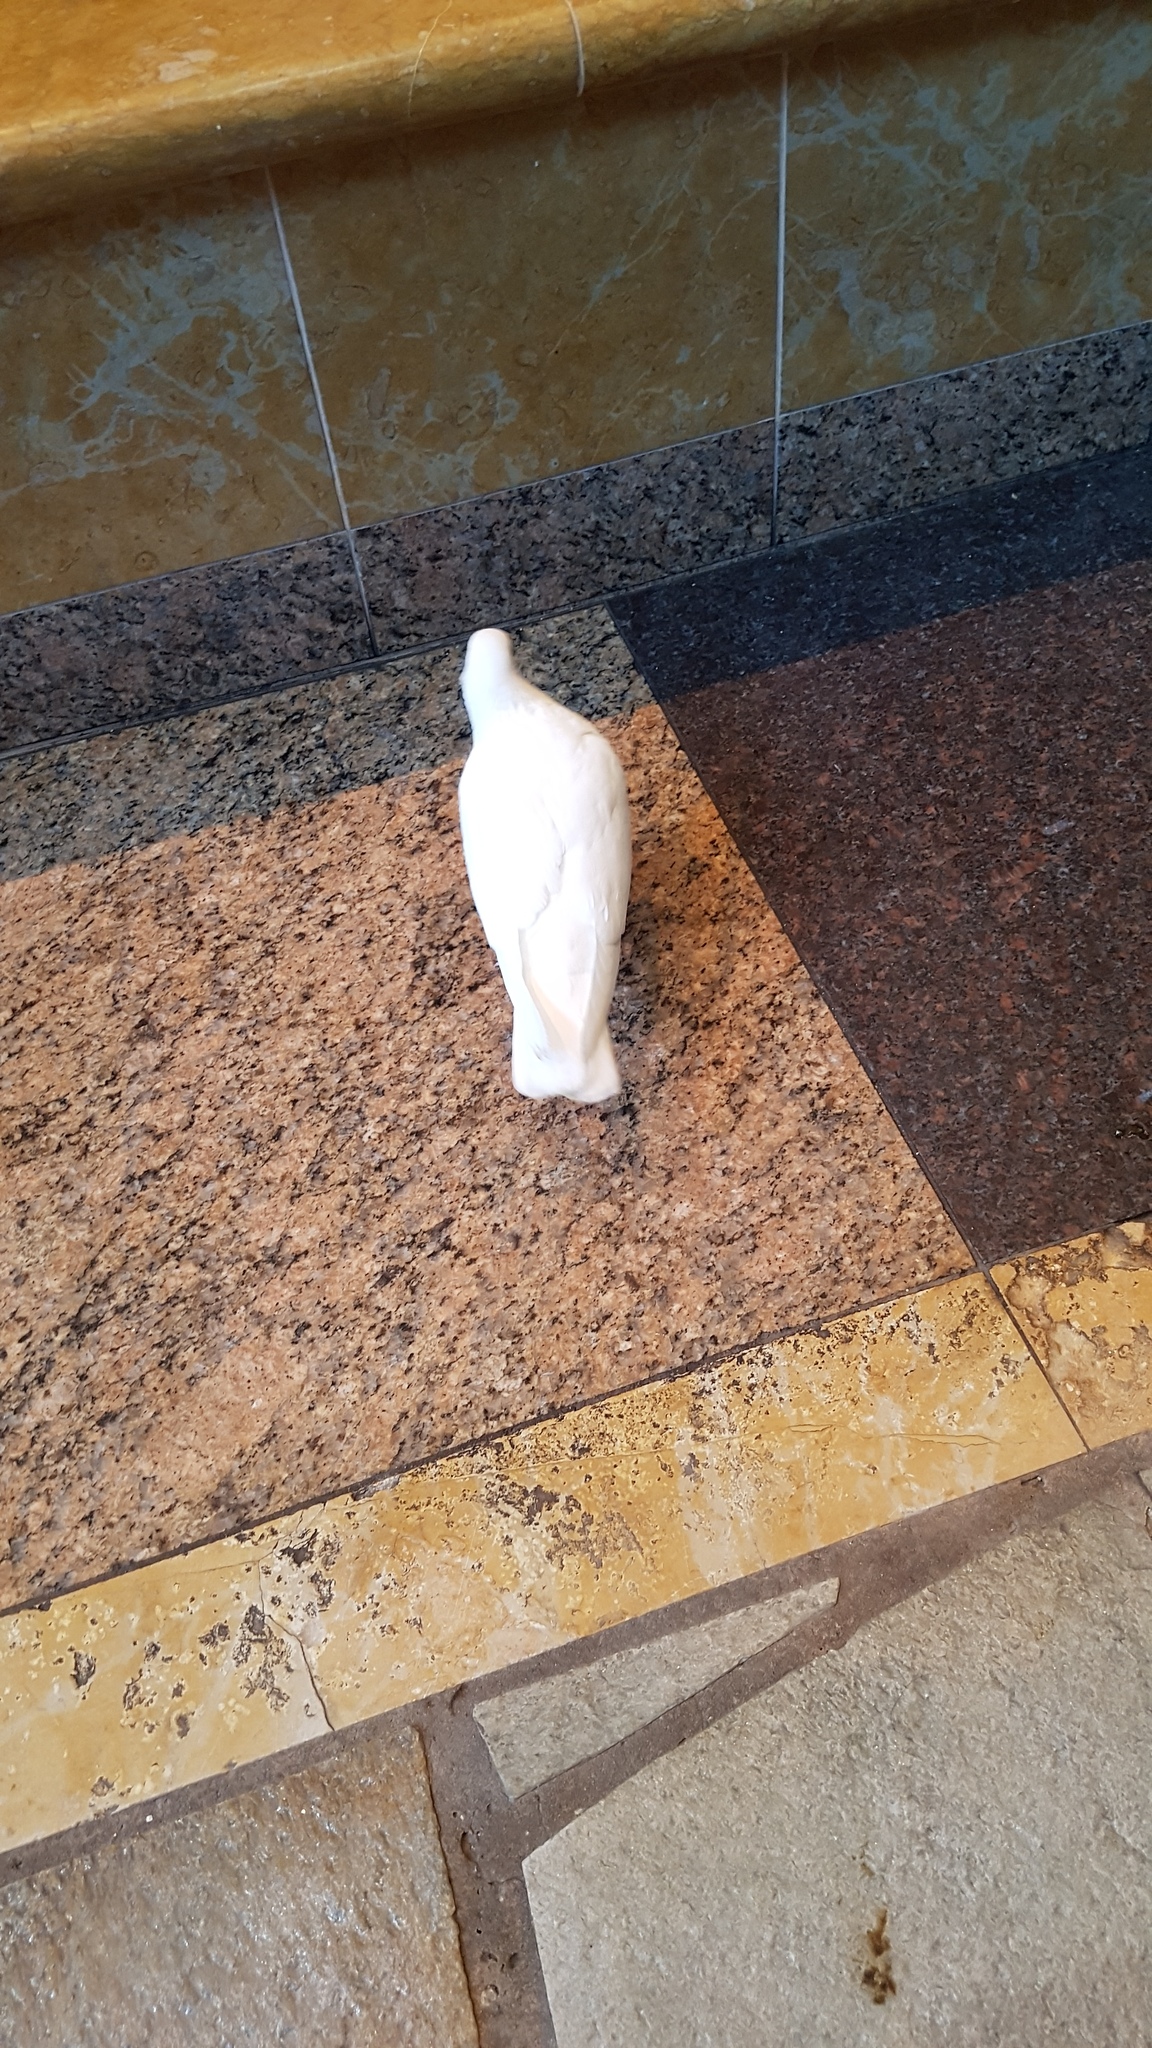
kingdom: Animalia
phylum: Chordata
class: Aves
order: Columbiformes
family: Columbidae
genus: Columba
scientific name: Columba livia
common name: Rock pigeon
